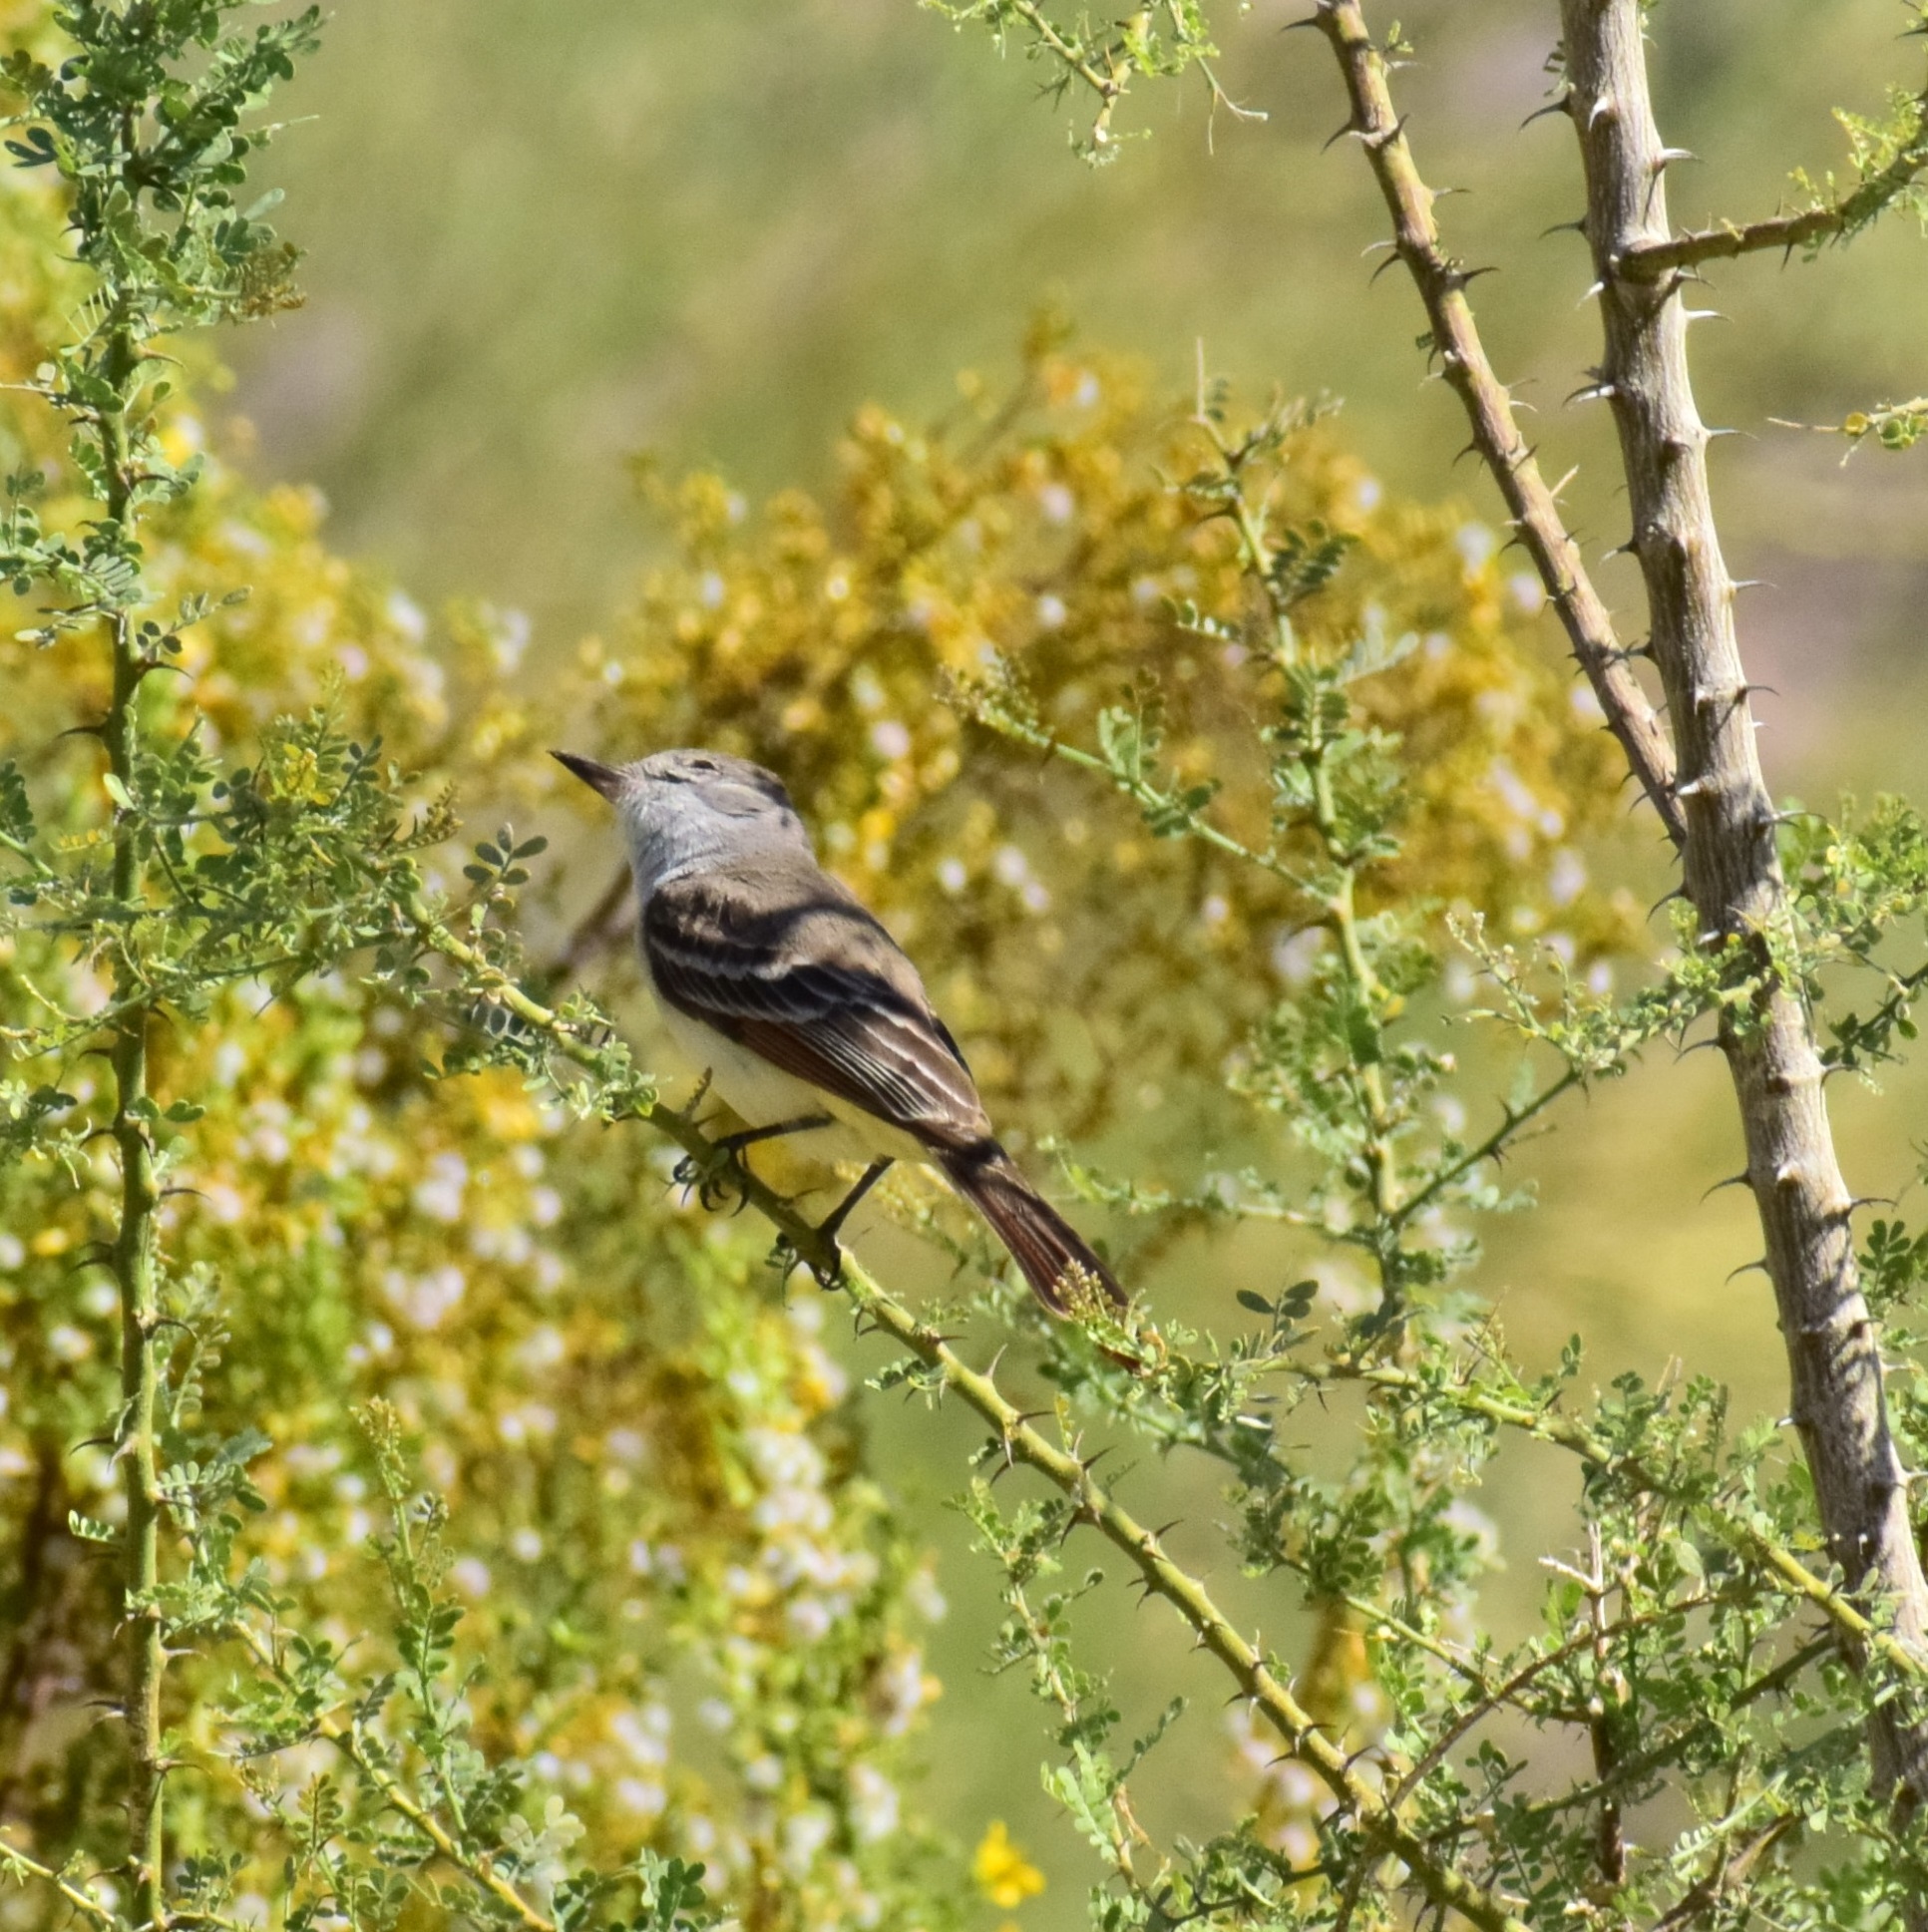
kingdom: Animalia
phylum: Chordata
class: Aves
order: Passeriformes
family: Tyrannidae
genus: Myiarchus
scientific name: Myiarchus cinerascens
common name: Ash-throated flycatcher
